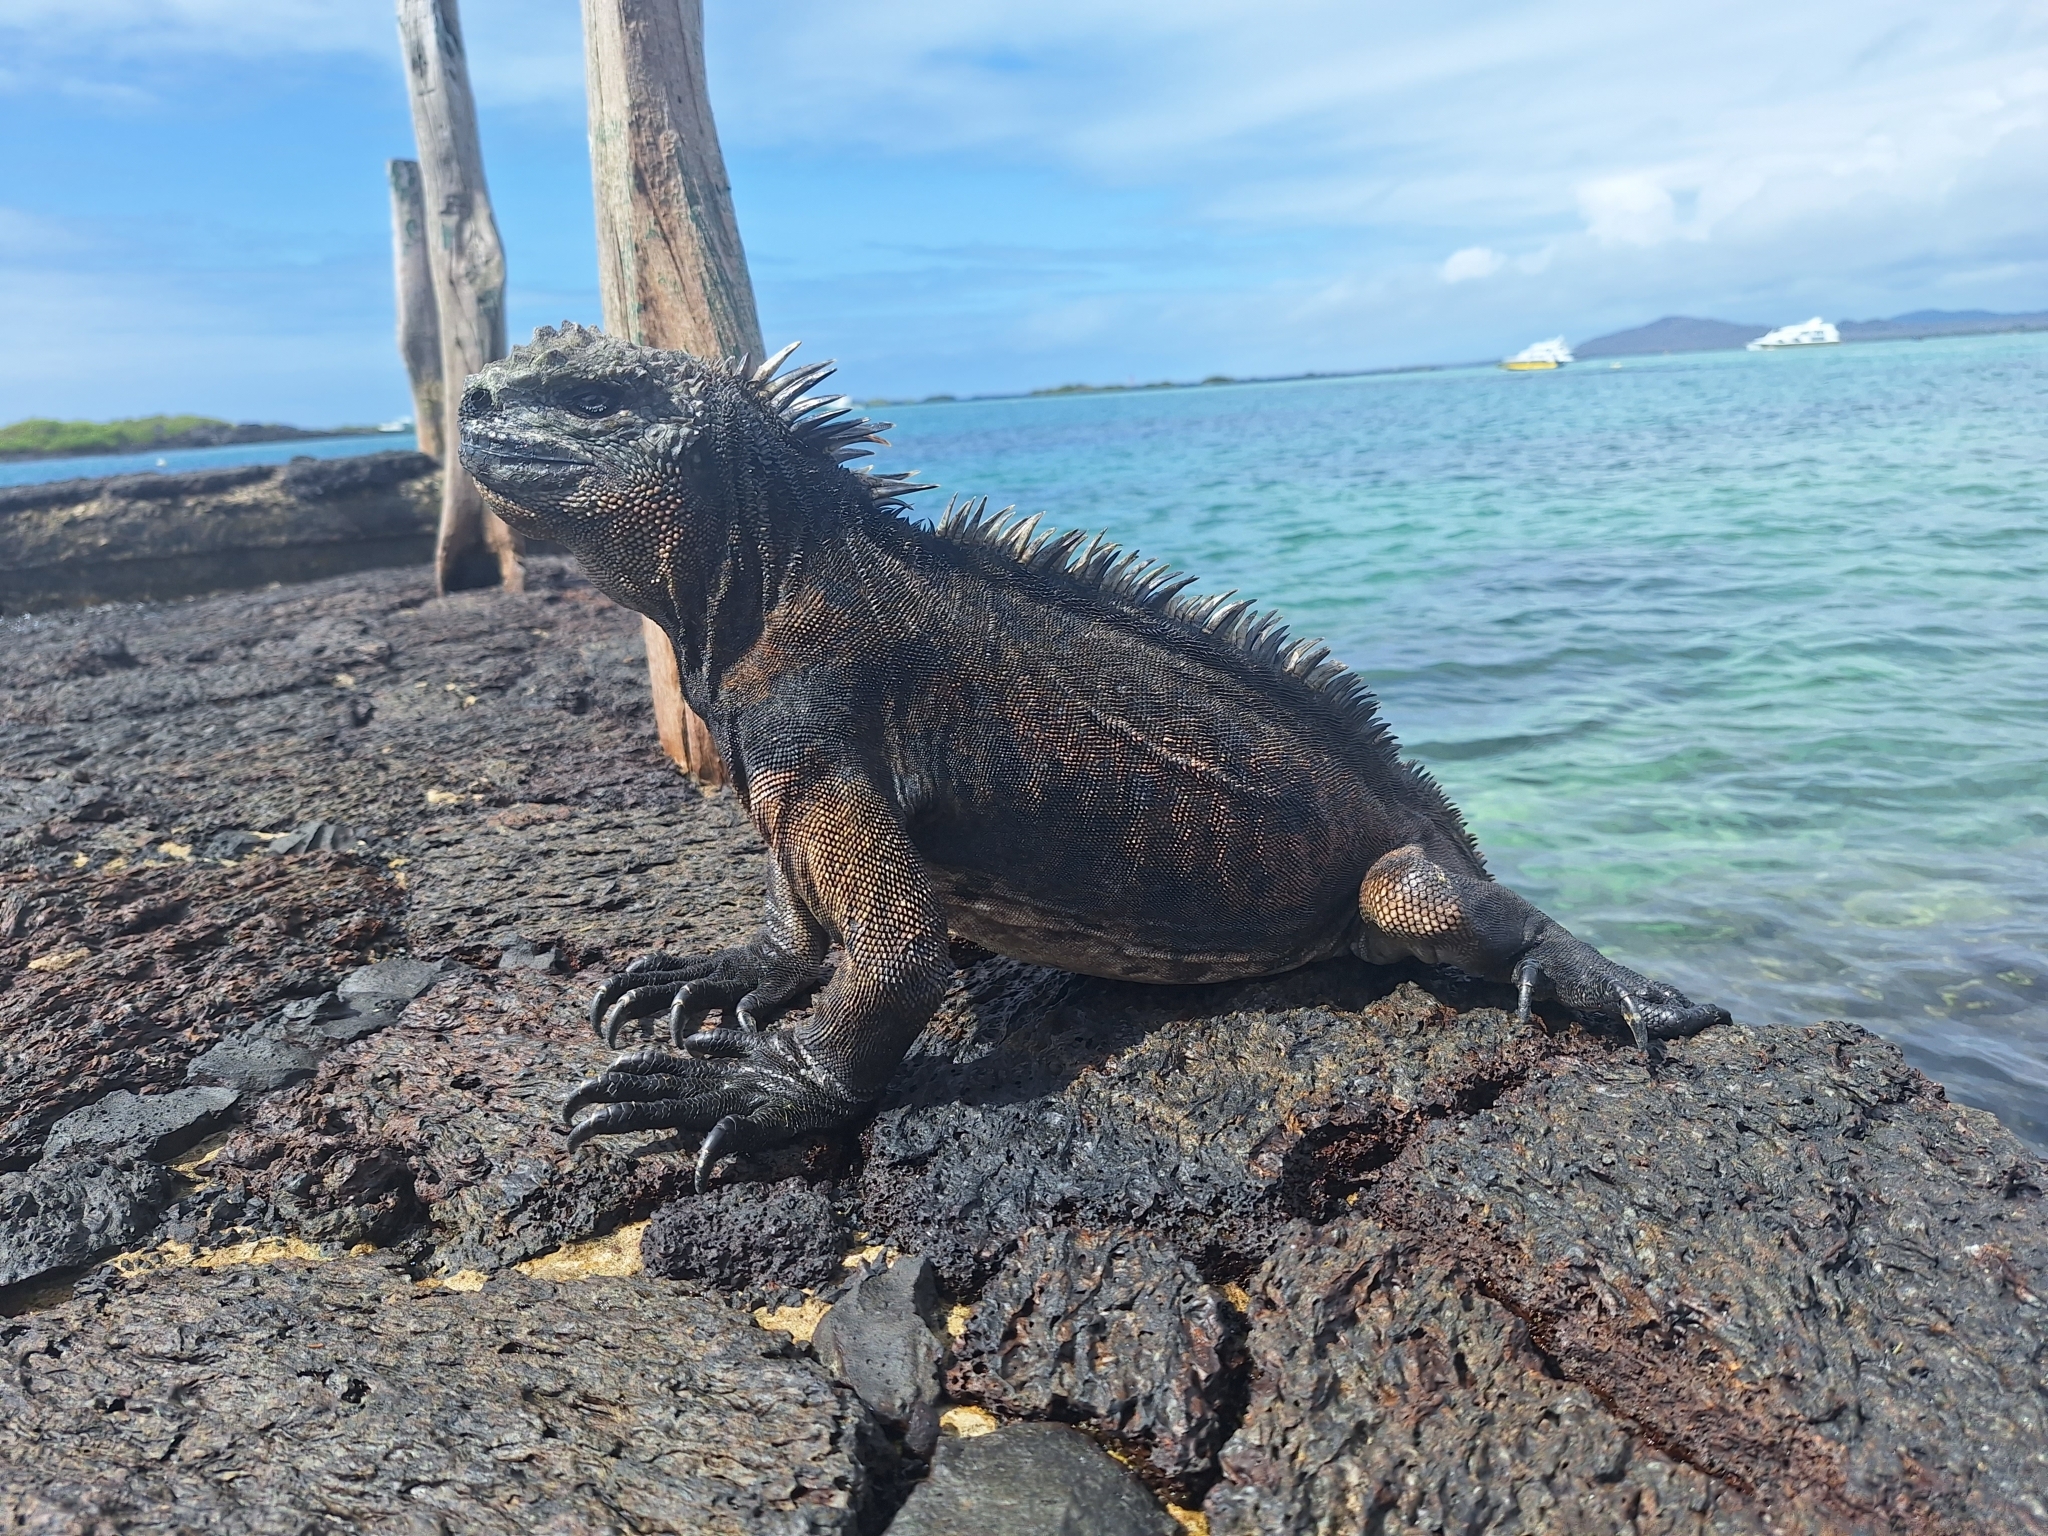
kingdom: Animalia
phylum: Chordata
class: Squamata
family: Iguanidae
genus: Amblyrhynchus
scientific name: Amblyrhynchus cristatus
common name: Marine iguana
